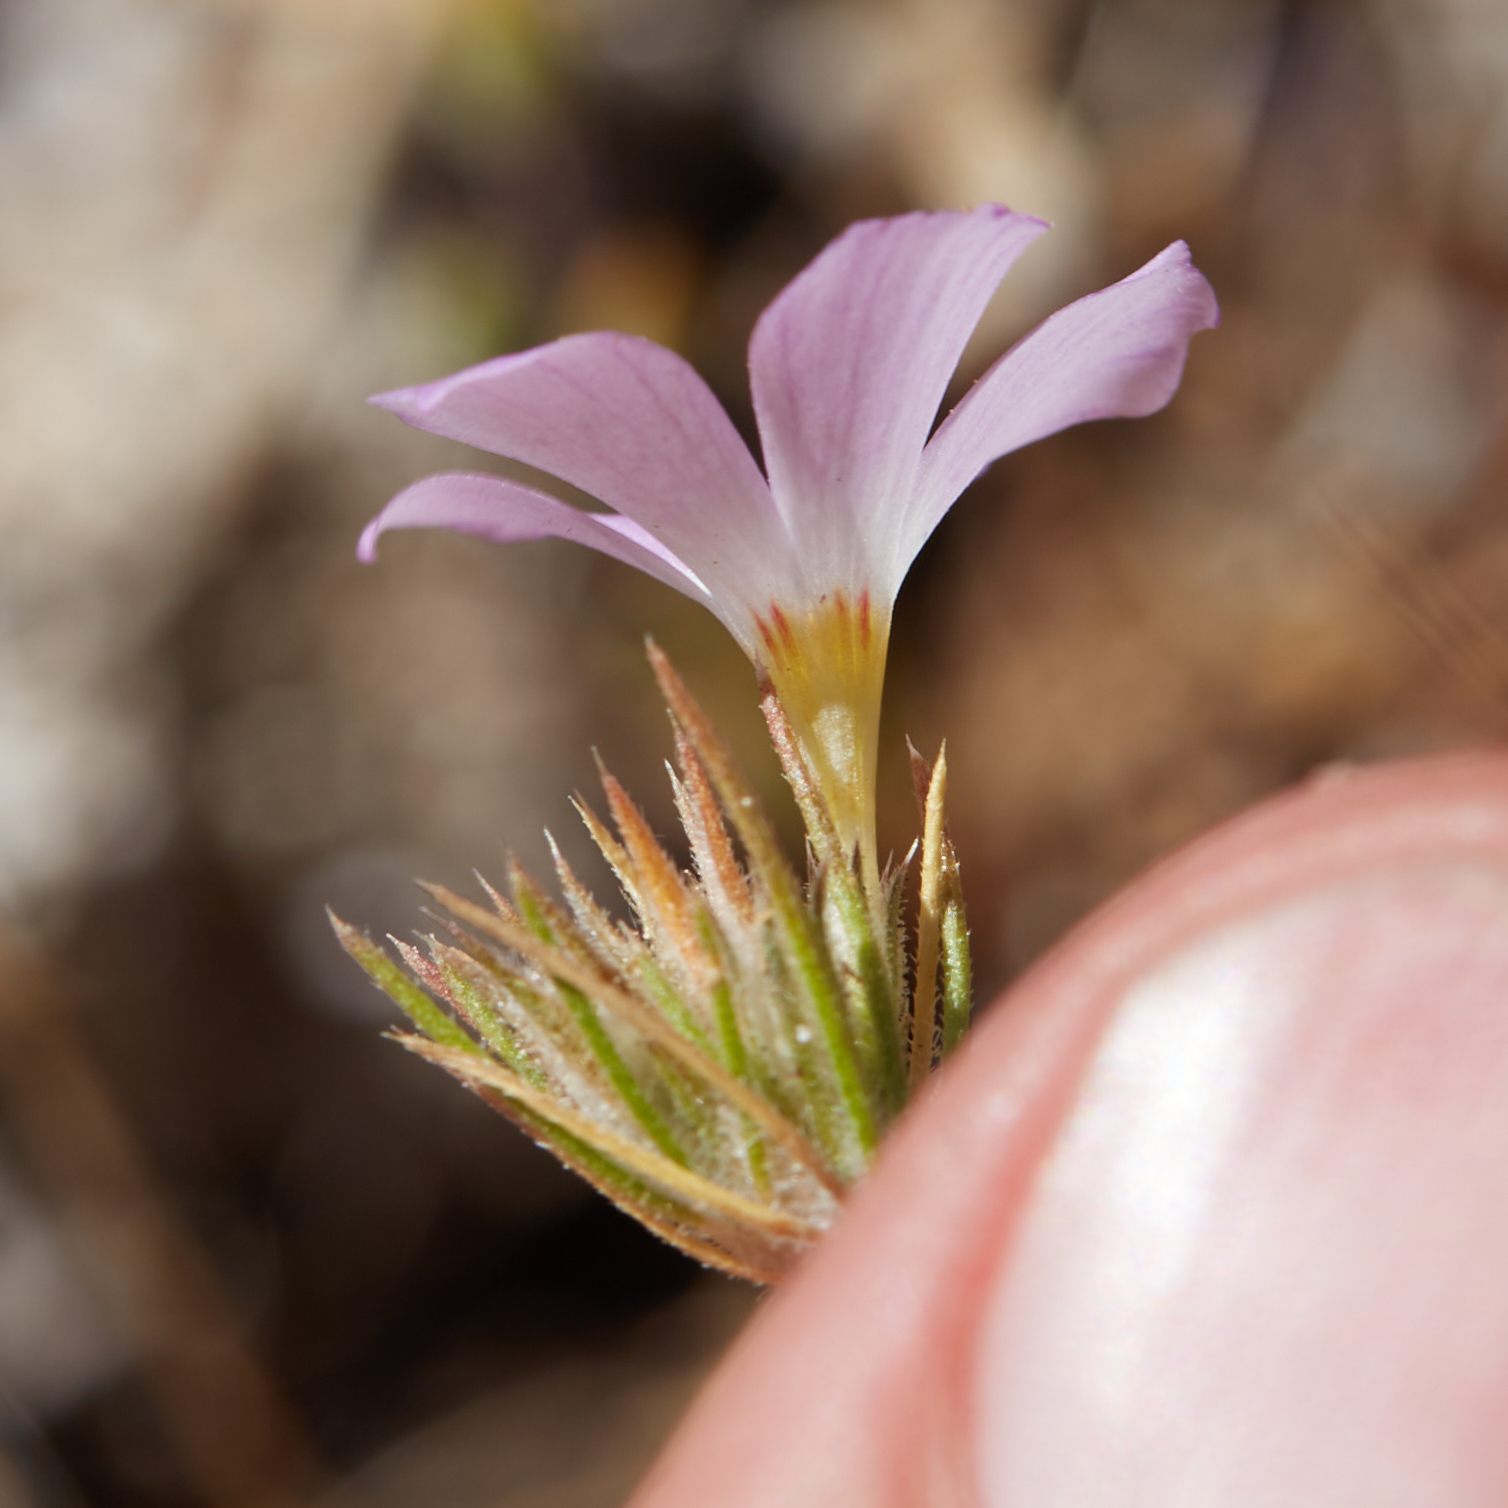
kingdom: Plantae
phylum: Tracheophyta
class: Magnoliopsida
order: Ericales
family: Polemoniaceae
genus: Leptosiphon
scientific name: Leptosiphon grandiflorus
